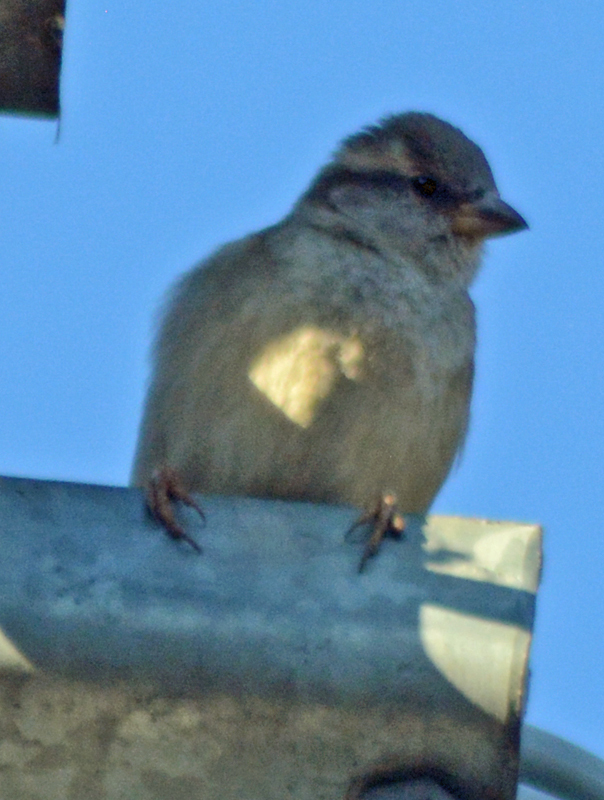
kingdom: Animalia
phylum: Chordata
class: Aves
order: Passeriformes
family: Passeridae
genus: Passer
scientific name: Passer domesticus
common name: House sparrow
